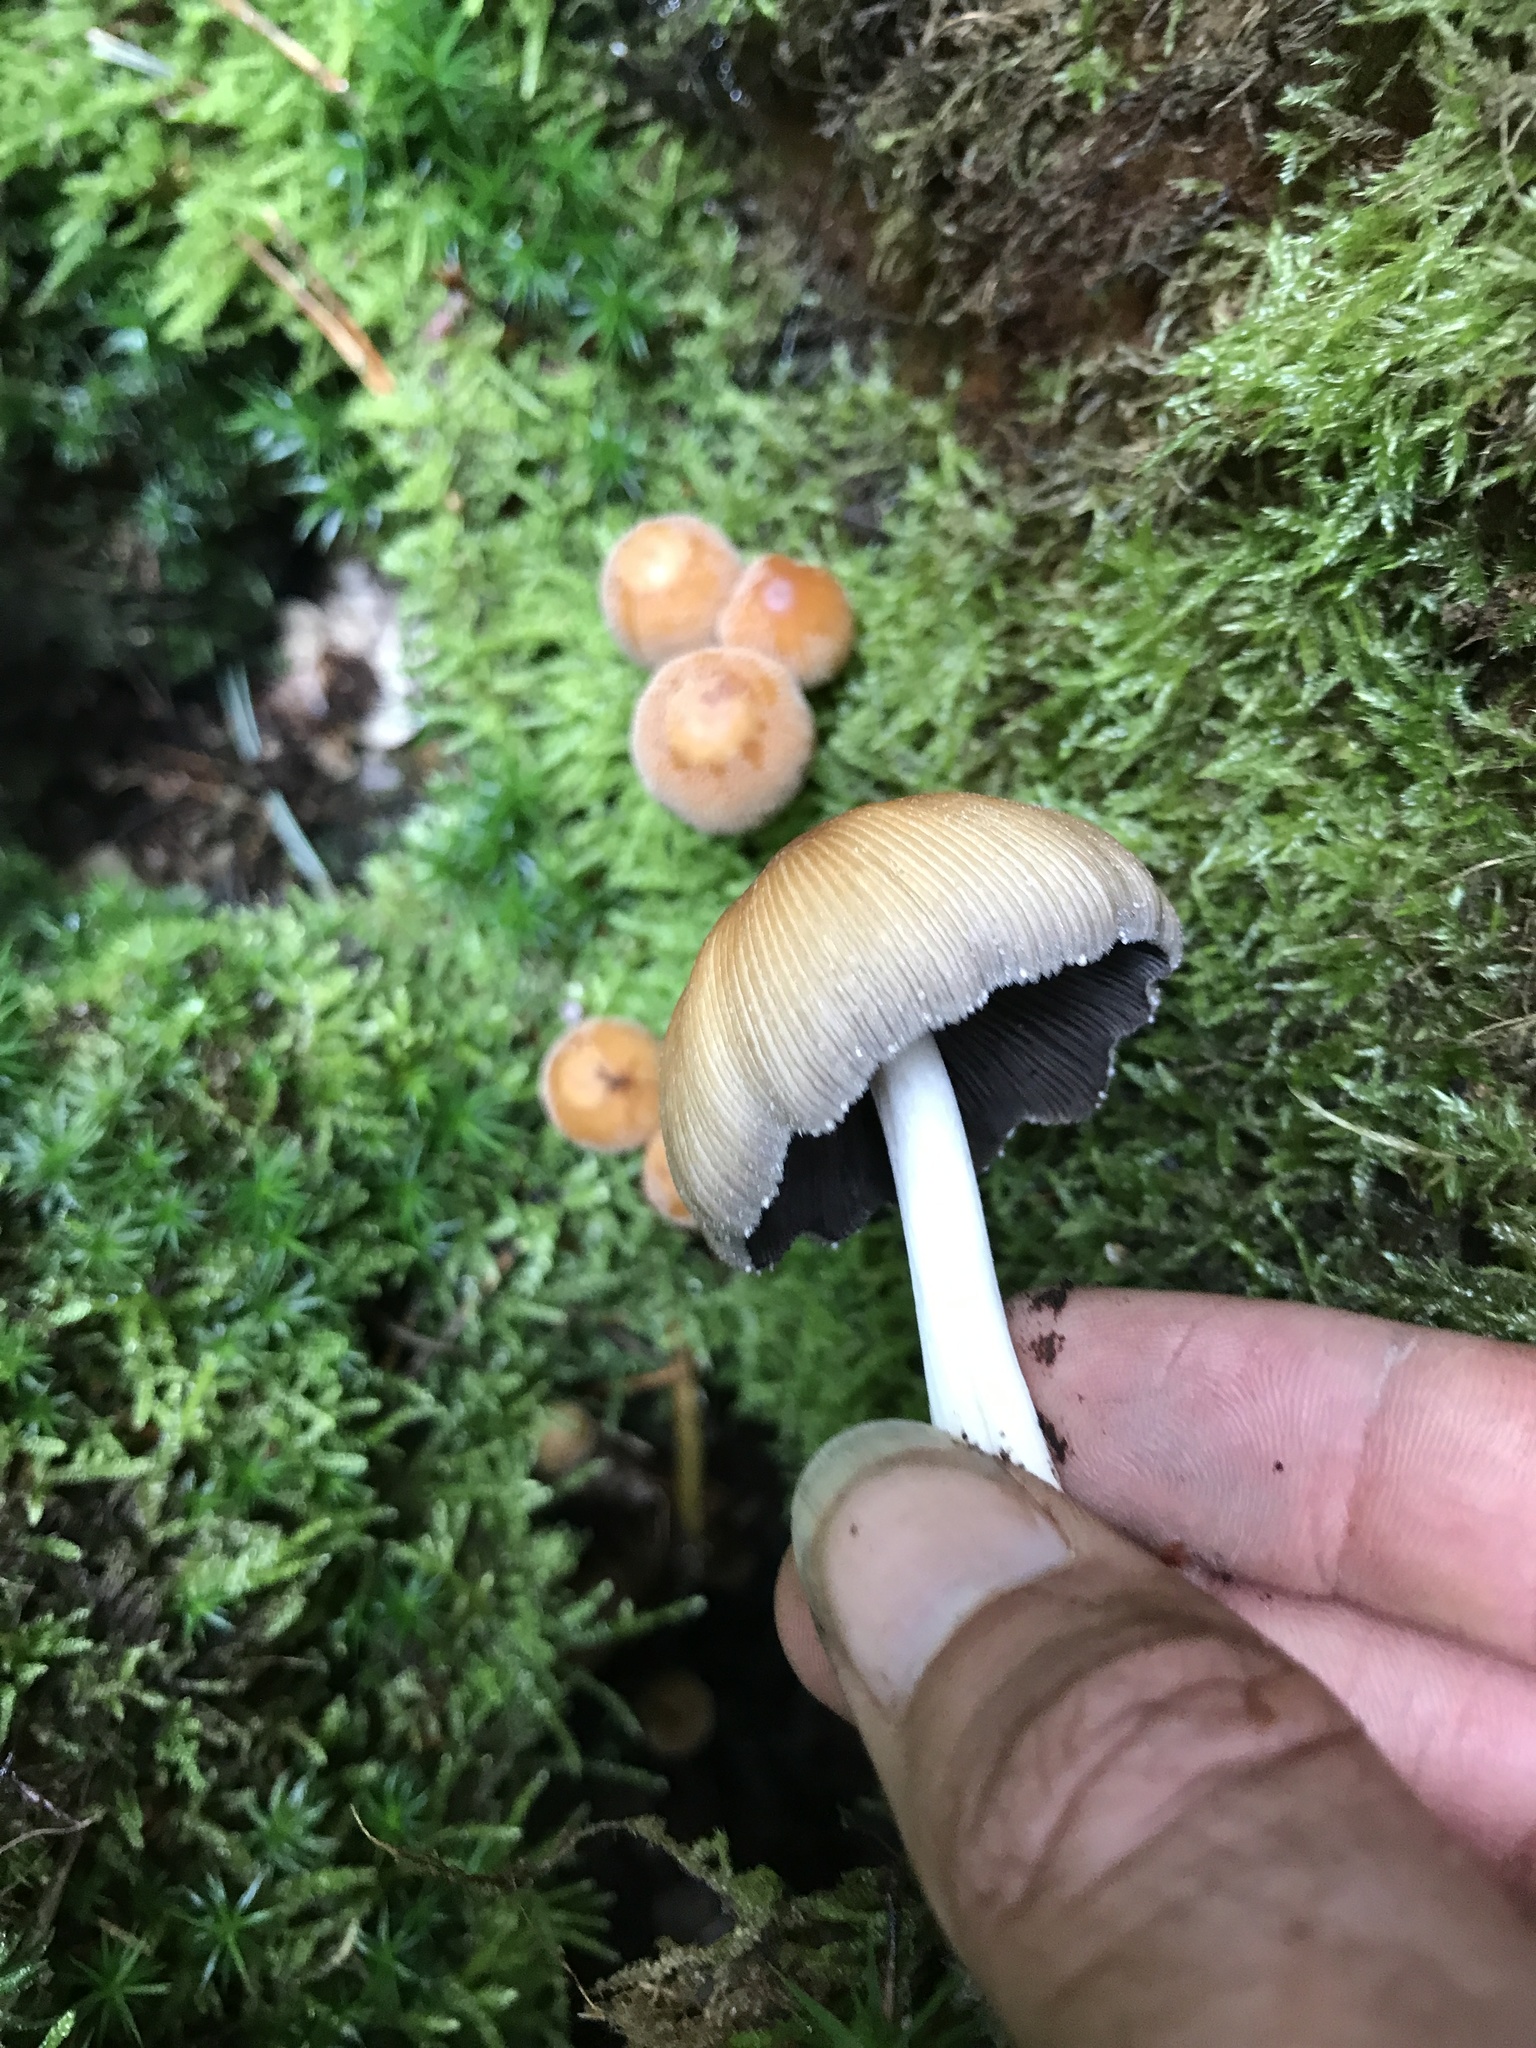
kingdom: Fungi
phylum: Basidiomycota
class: Agaricomycetes
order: Agaricales
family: Psathyrellaceae
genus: Coprinellus
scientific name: Coprinellus micaceus
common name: Glistening ink-cap
